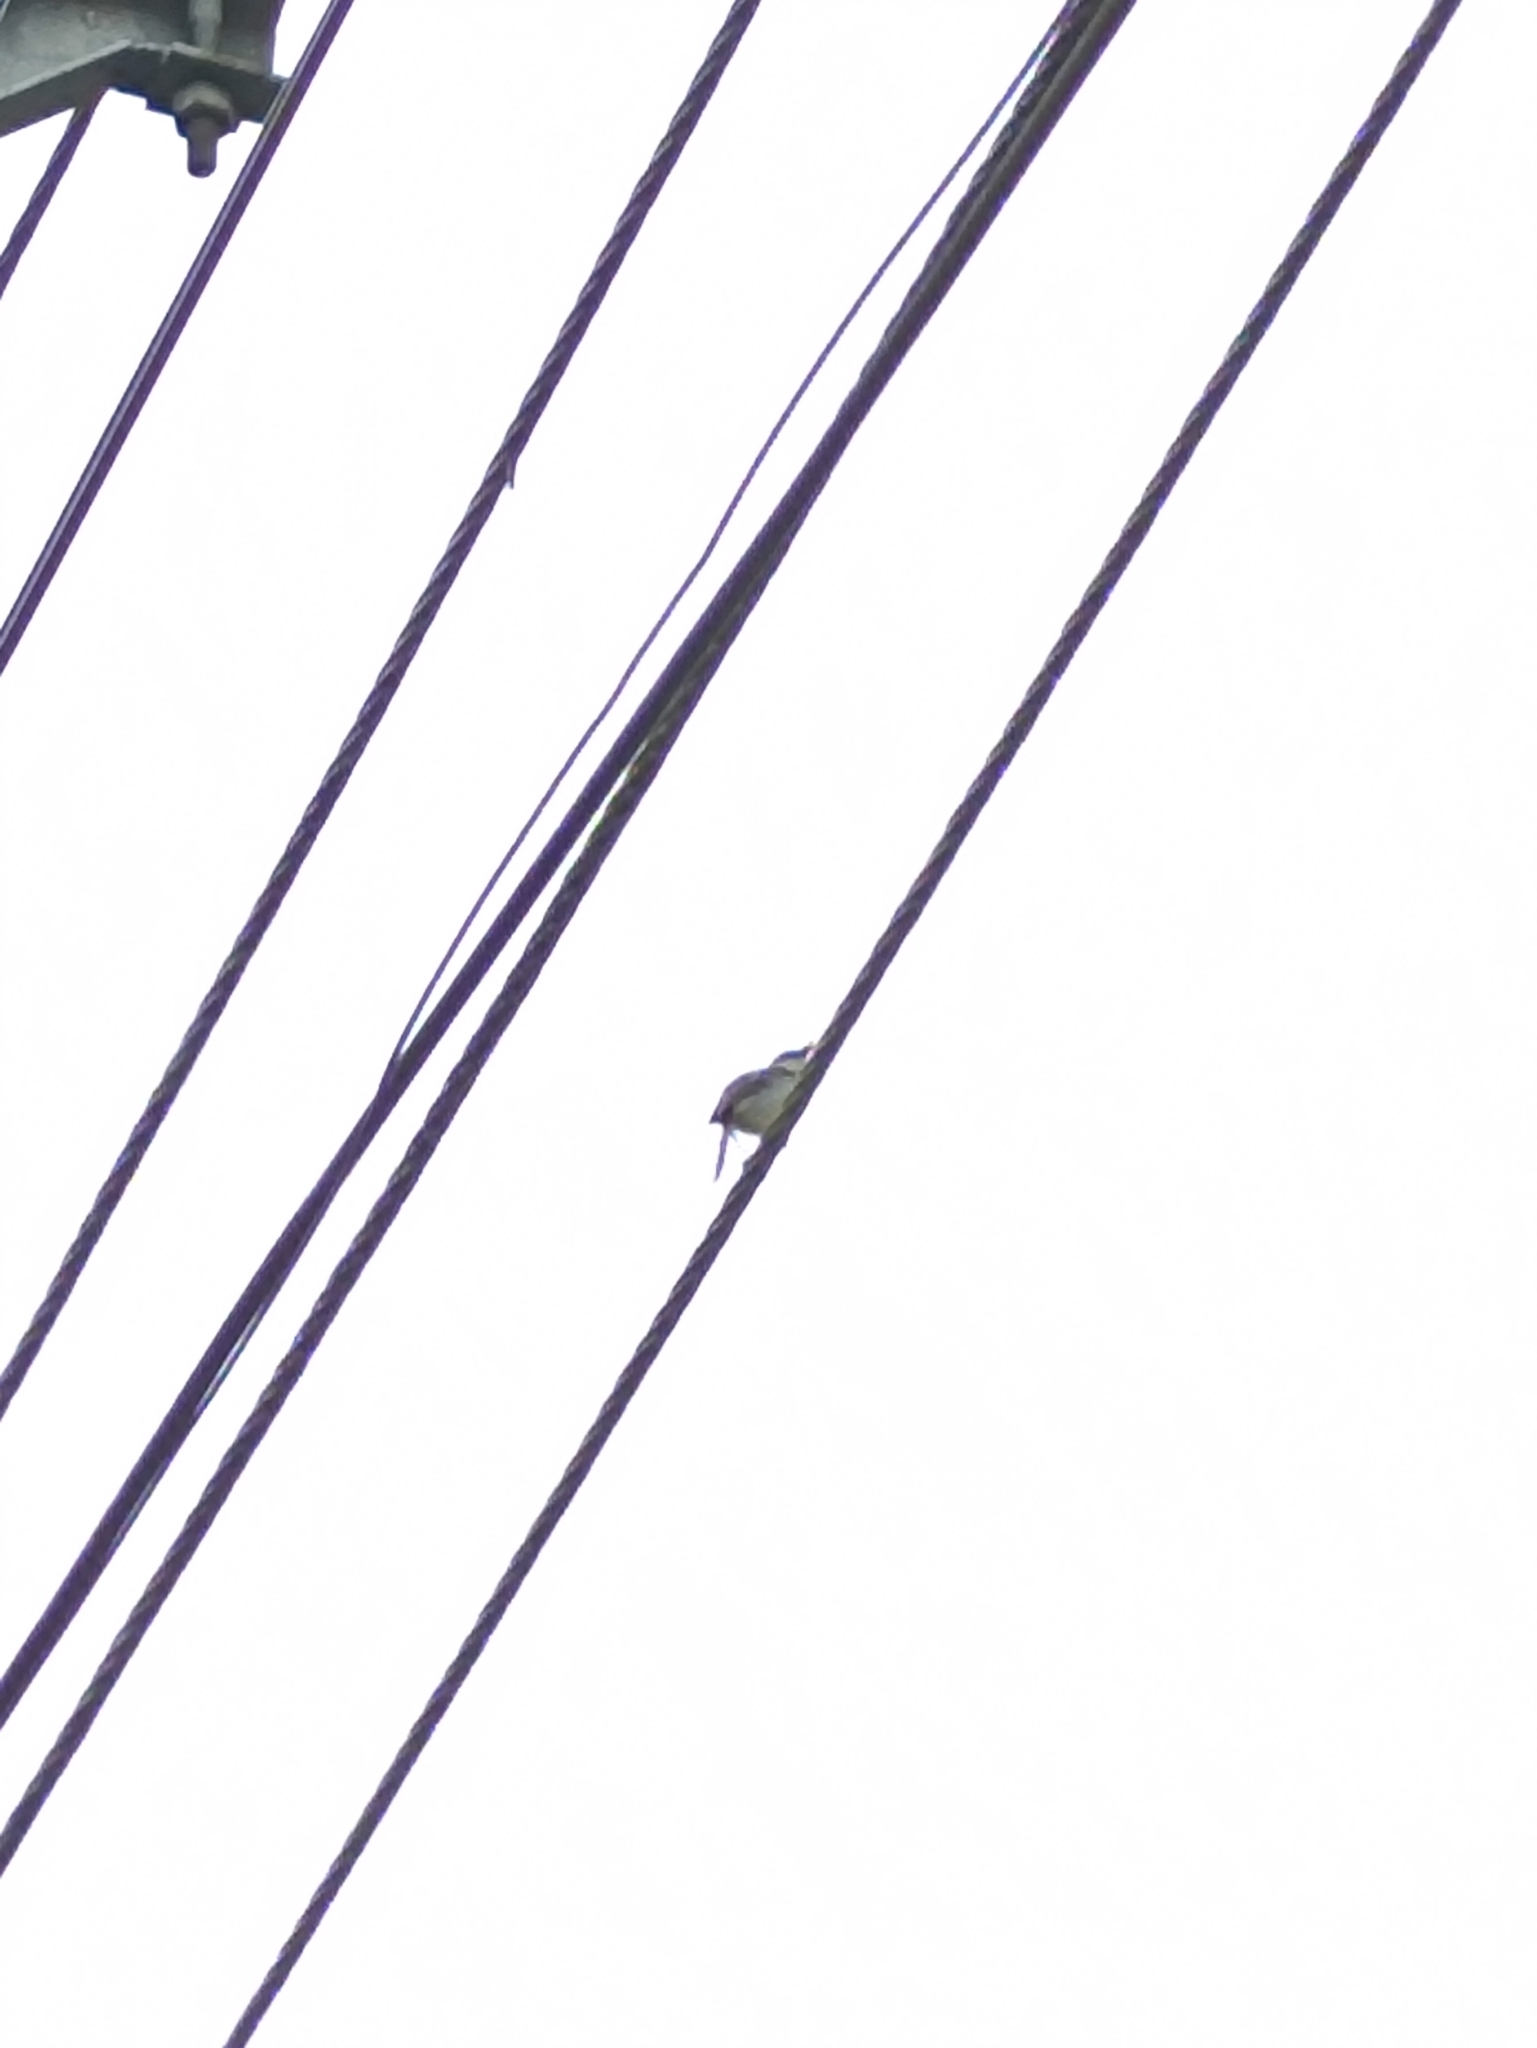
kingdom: Animalia
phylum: Chordata
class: Aves
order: Passeriformes
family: Cisticolidae
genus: Prinia
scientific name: Prinia hodgsonii
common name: Grey-breasted prinia
